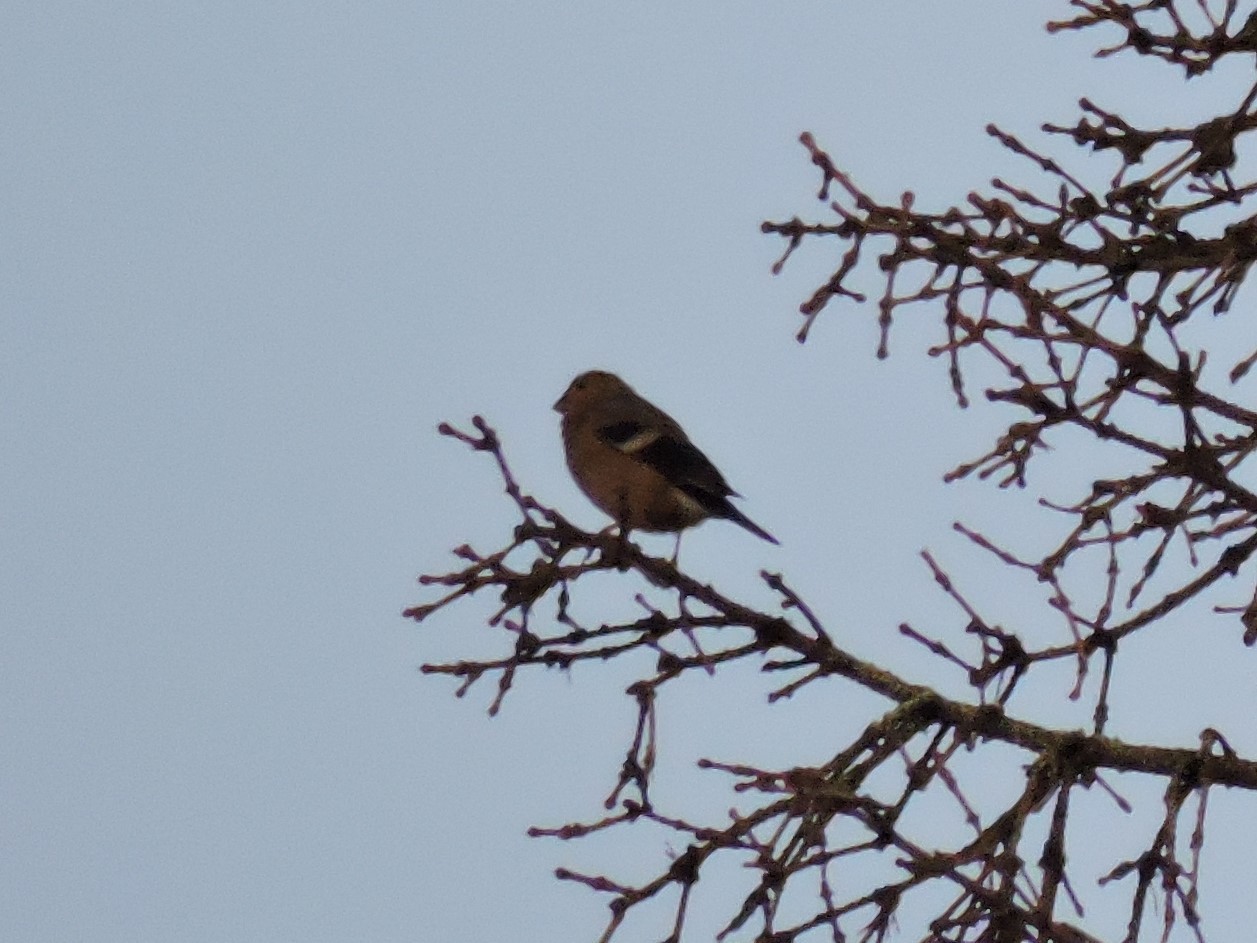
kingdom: Animalia
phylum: Chordata
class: Aves
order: Passeriformes
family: Fringillidae
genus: Pyrrhula
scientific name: Pyrrhula pyrrhula
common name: Eurasian bullfinch
